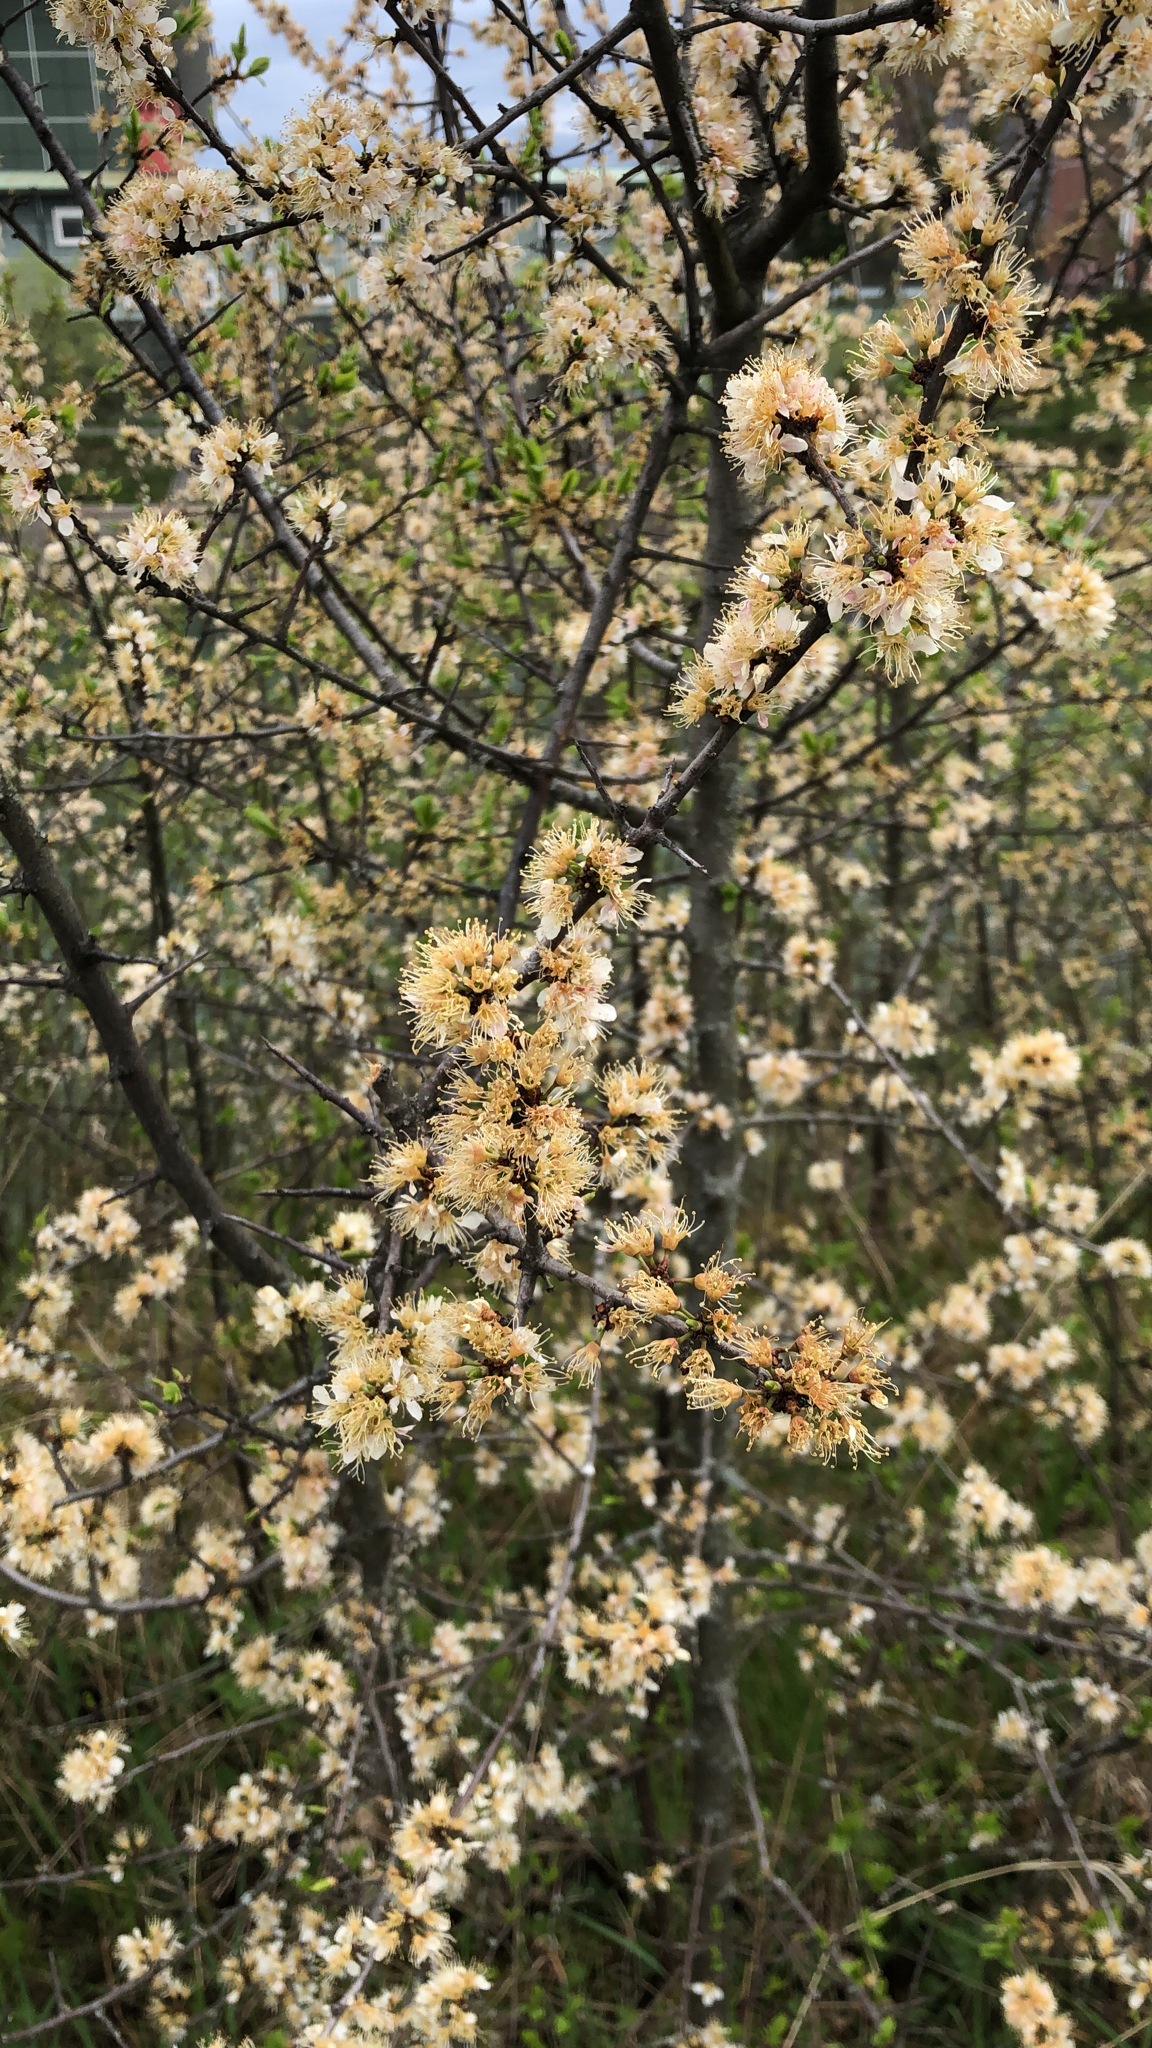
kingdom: Plantae
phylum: Tracheophyta
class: Magnoliopsida
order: Rosales
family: Rosaceae
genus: Prunus
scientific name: Prunus spinosa
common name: Blackthorn
